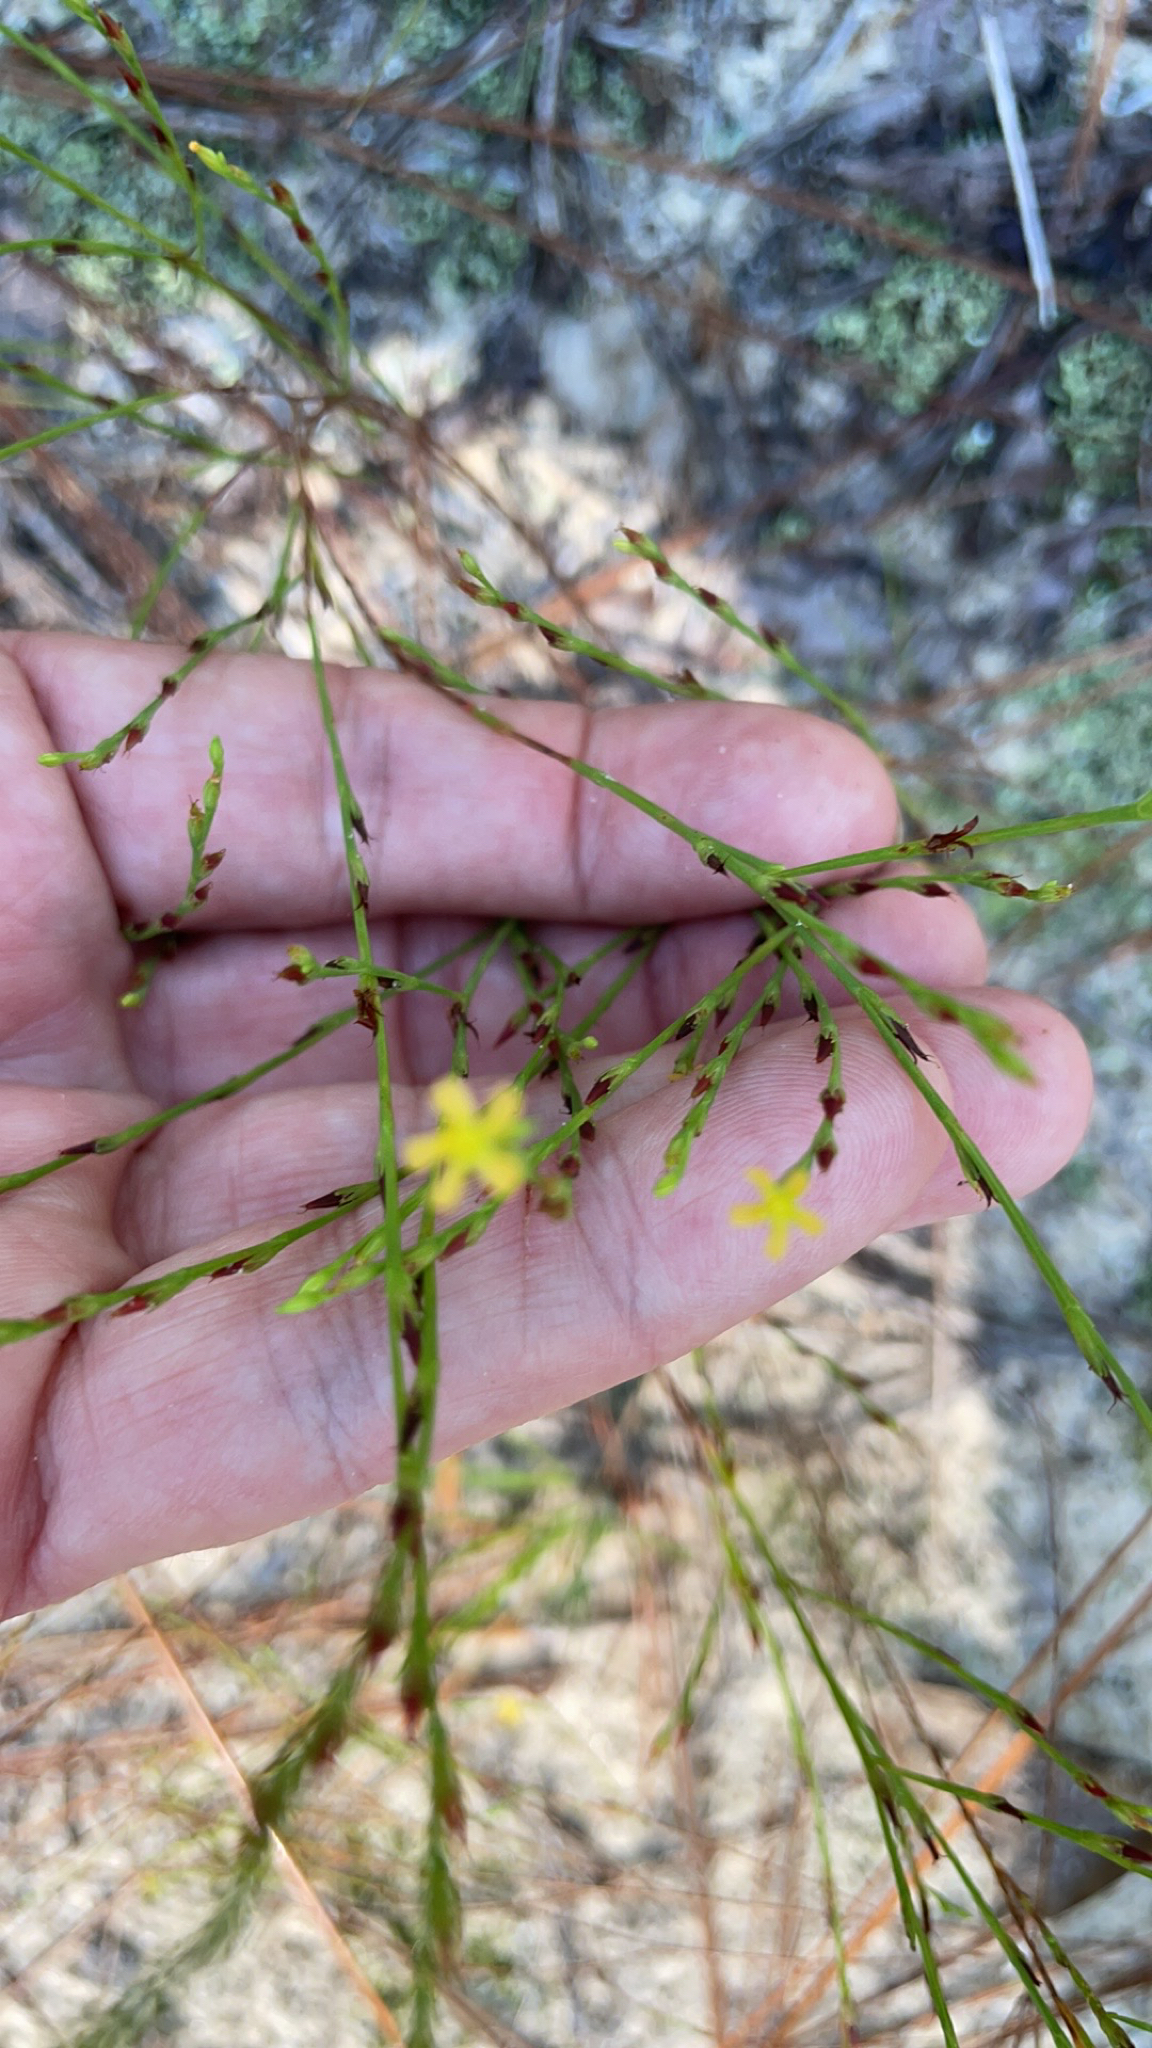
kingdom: Plantae
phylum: Tracheophyta
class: Magnoliopsida
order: Malpighiales
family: Hypericaceae
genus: Hypericum
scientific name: Hypericum gentianoides
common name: Gentian-leaved st. john's-wort
